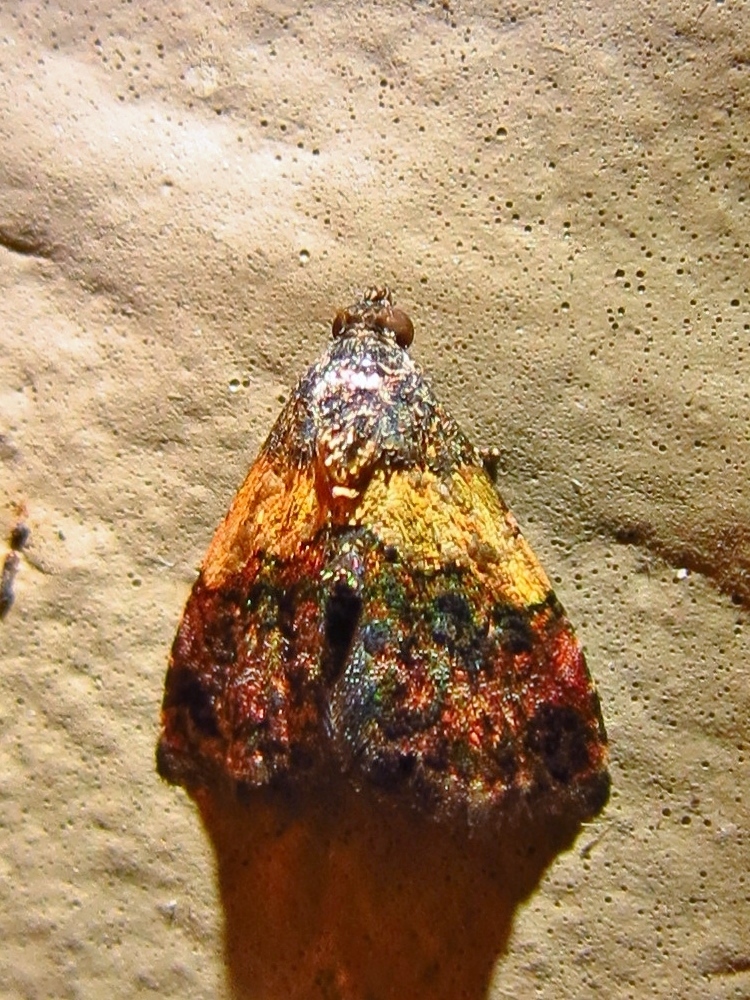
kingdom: Animalia
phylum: Arthropoda
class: Insecta
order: Lepidoptera
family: Noctuidae
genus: Tripudia
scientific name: Tripudia flavofasciata
